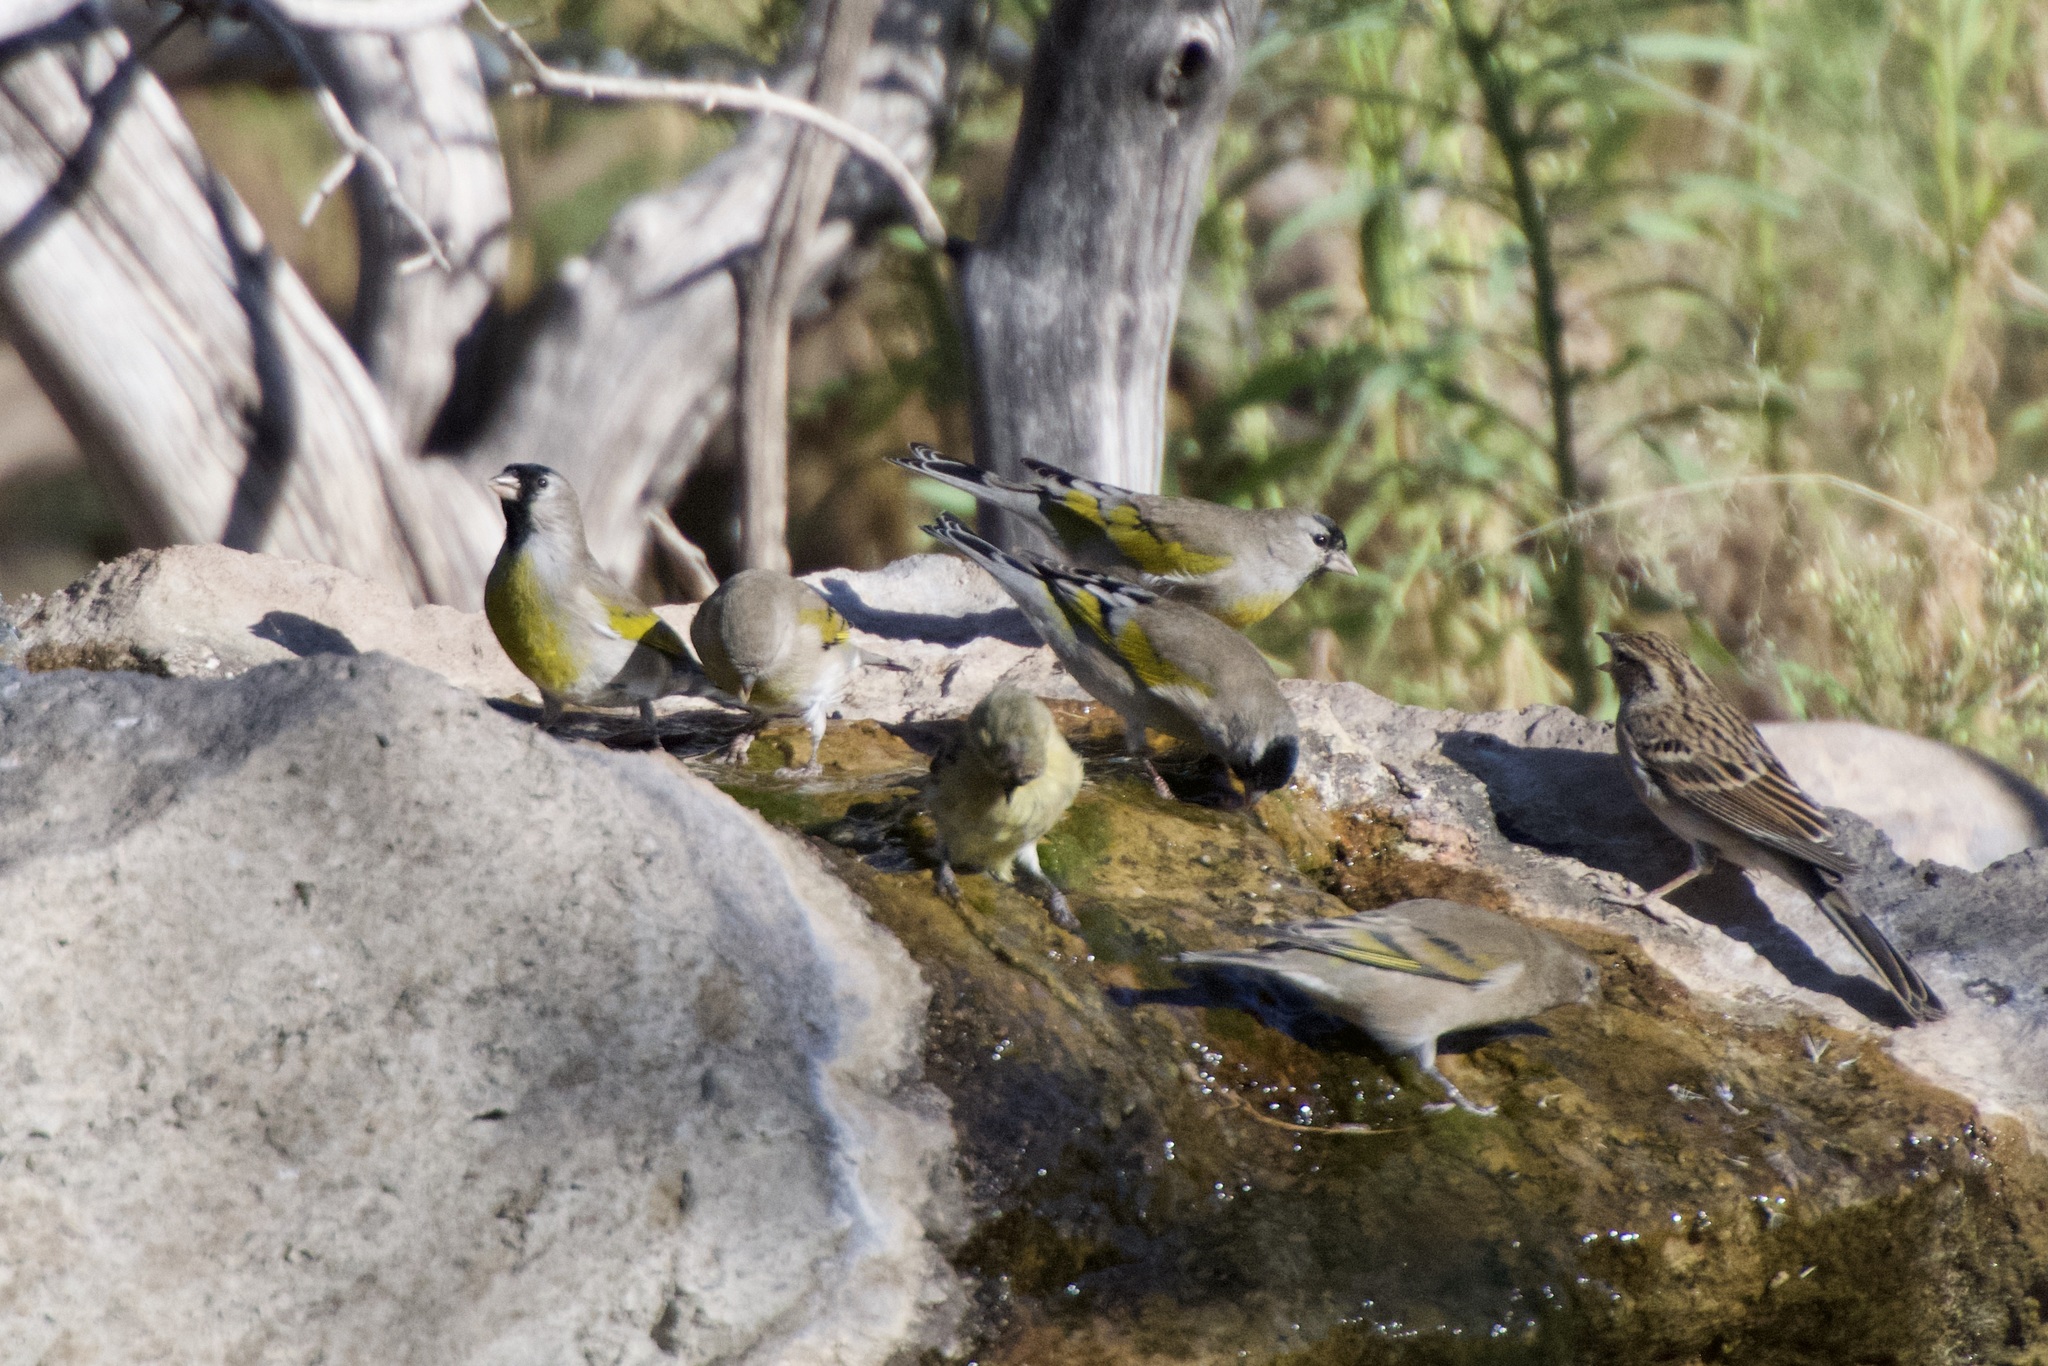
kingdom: Animalia
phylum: Chordata
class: Aves
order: Passeriformes
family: Fringillidae
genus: Spinus
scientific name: Spinus lawrencei
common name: Lawrence's goldfinch
